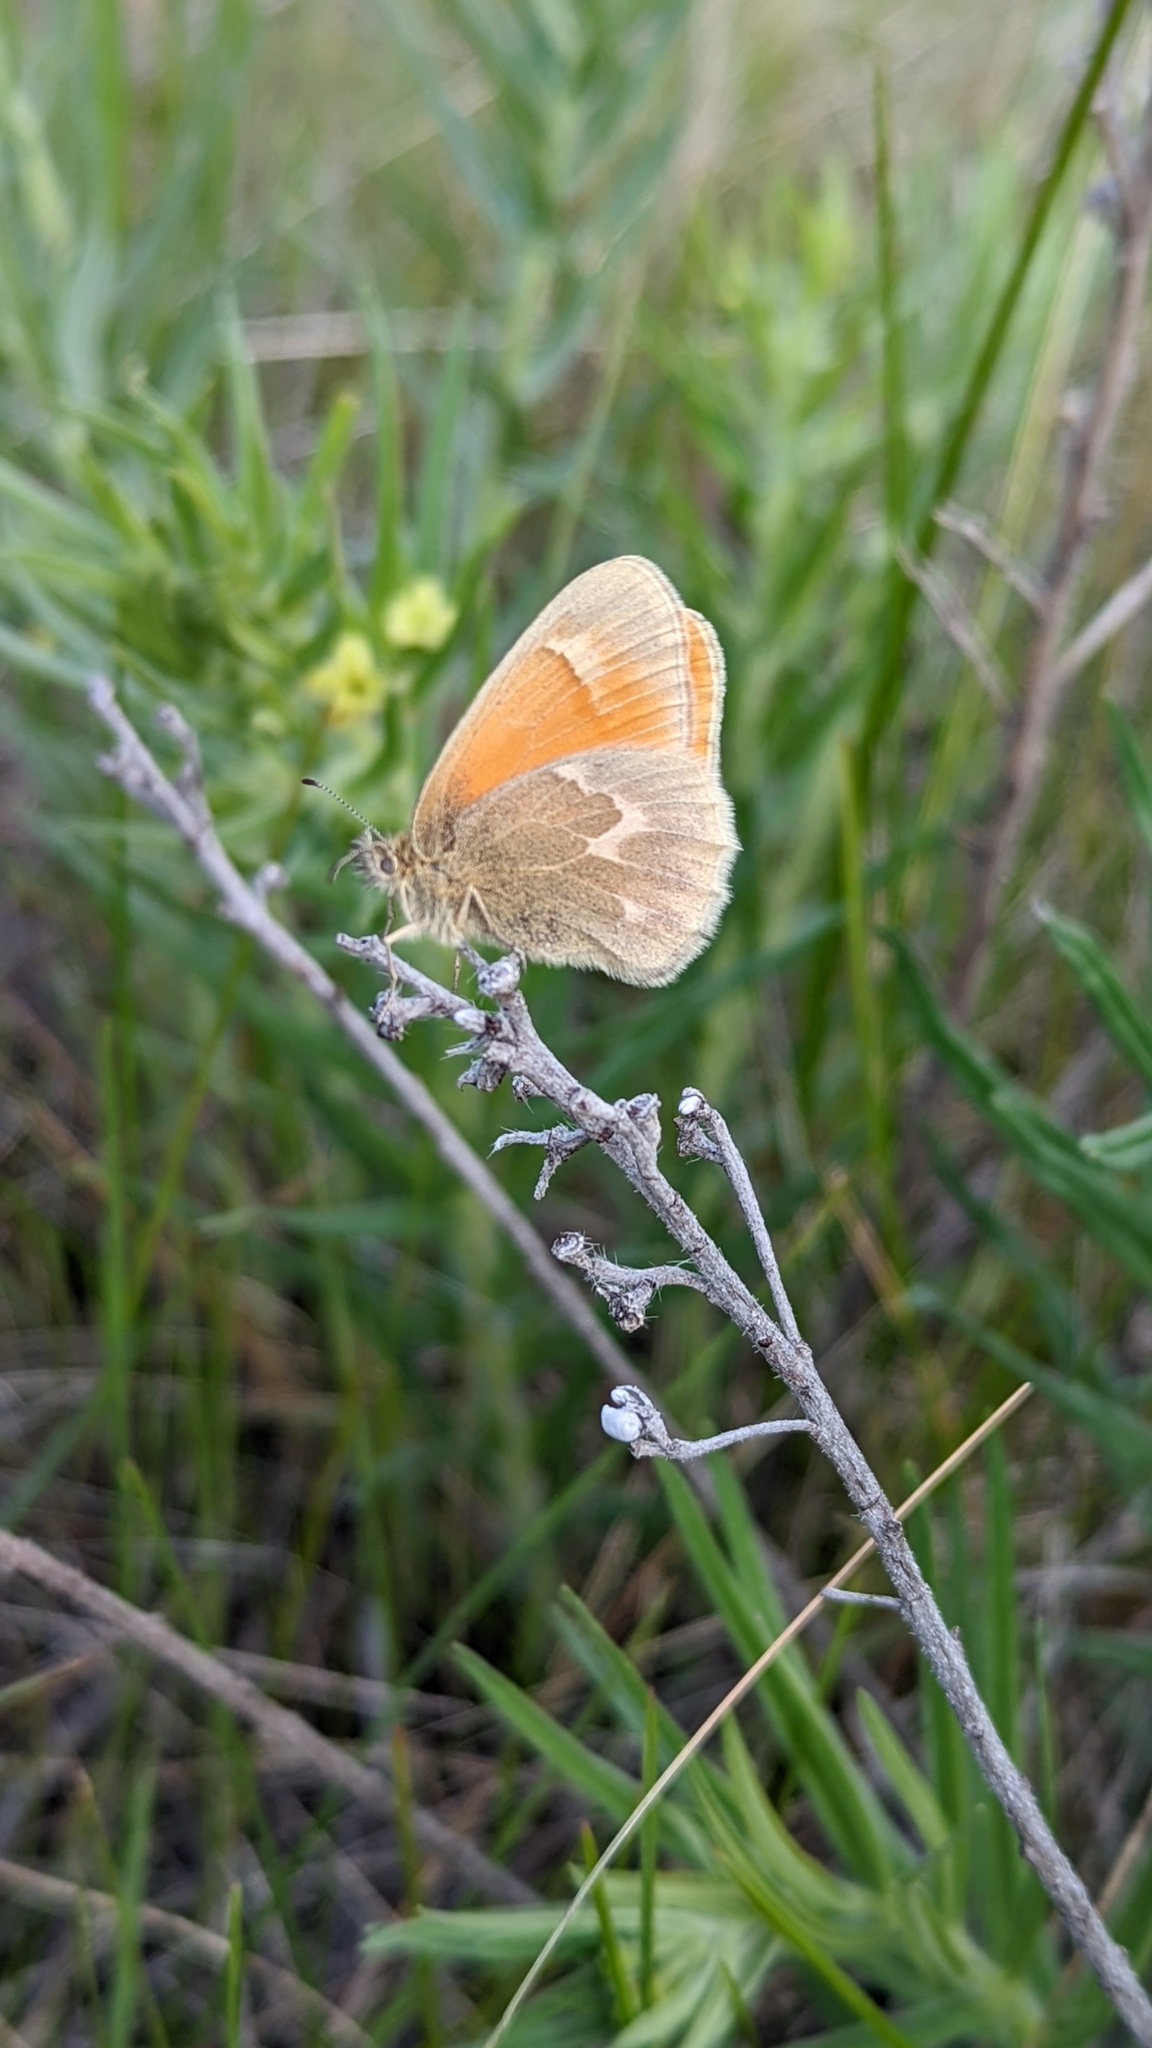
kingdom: Animalia
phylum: Arthropoda
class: Insecta
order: Lepidoptera
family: Nymphalidae
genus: Coenonympha
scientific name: Coenonympha california
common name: Common ringlet
